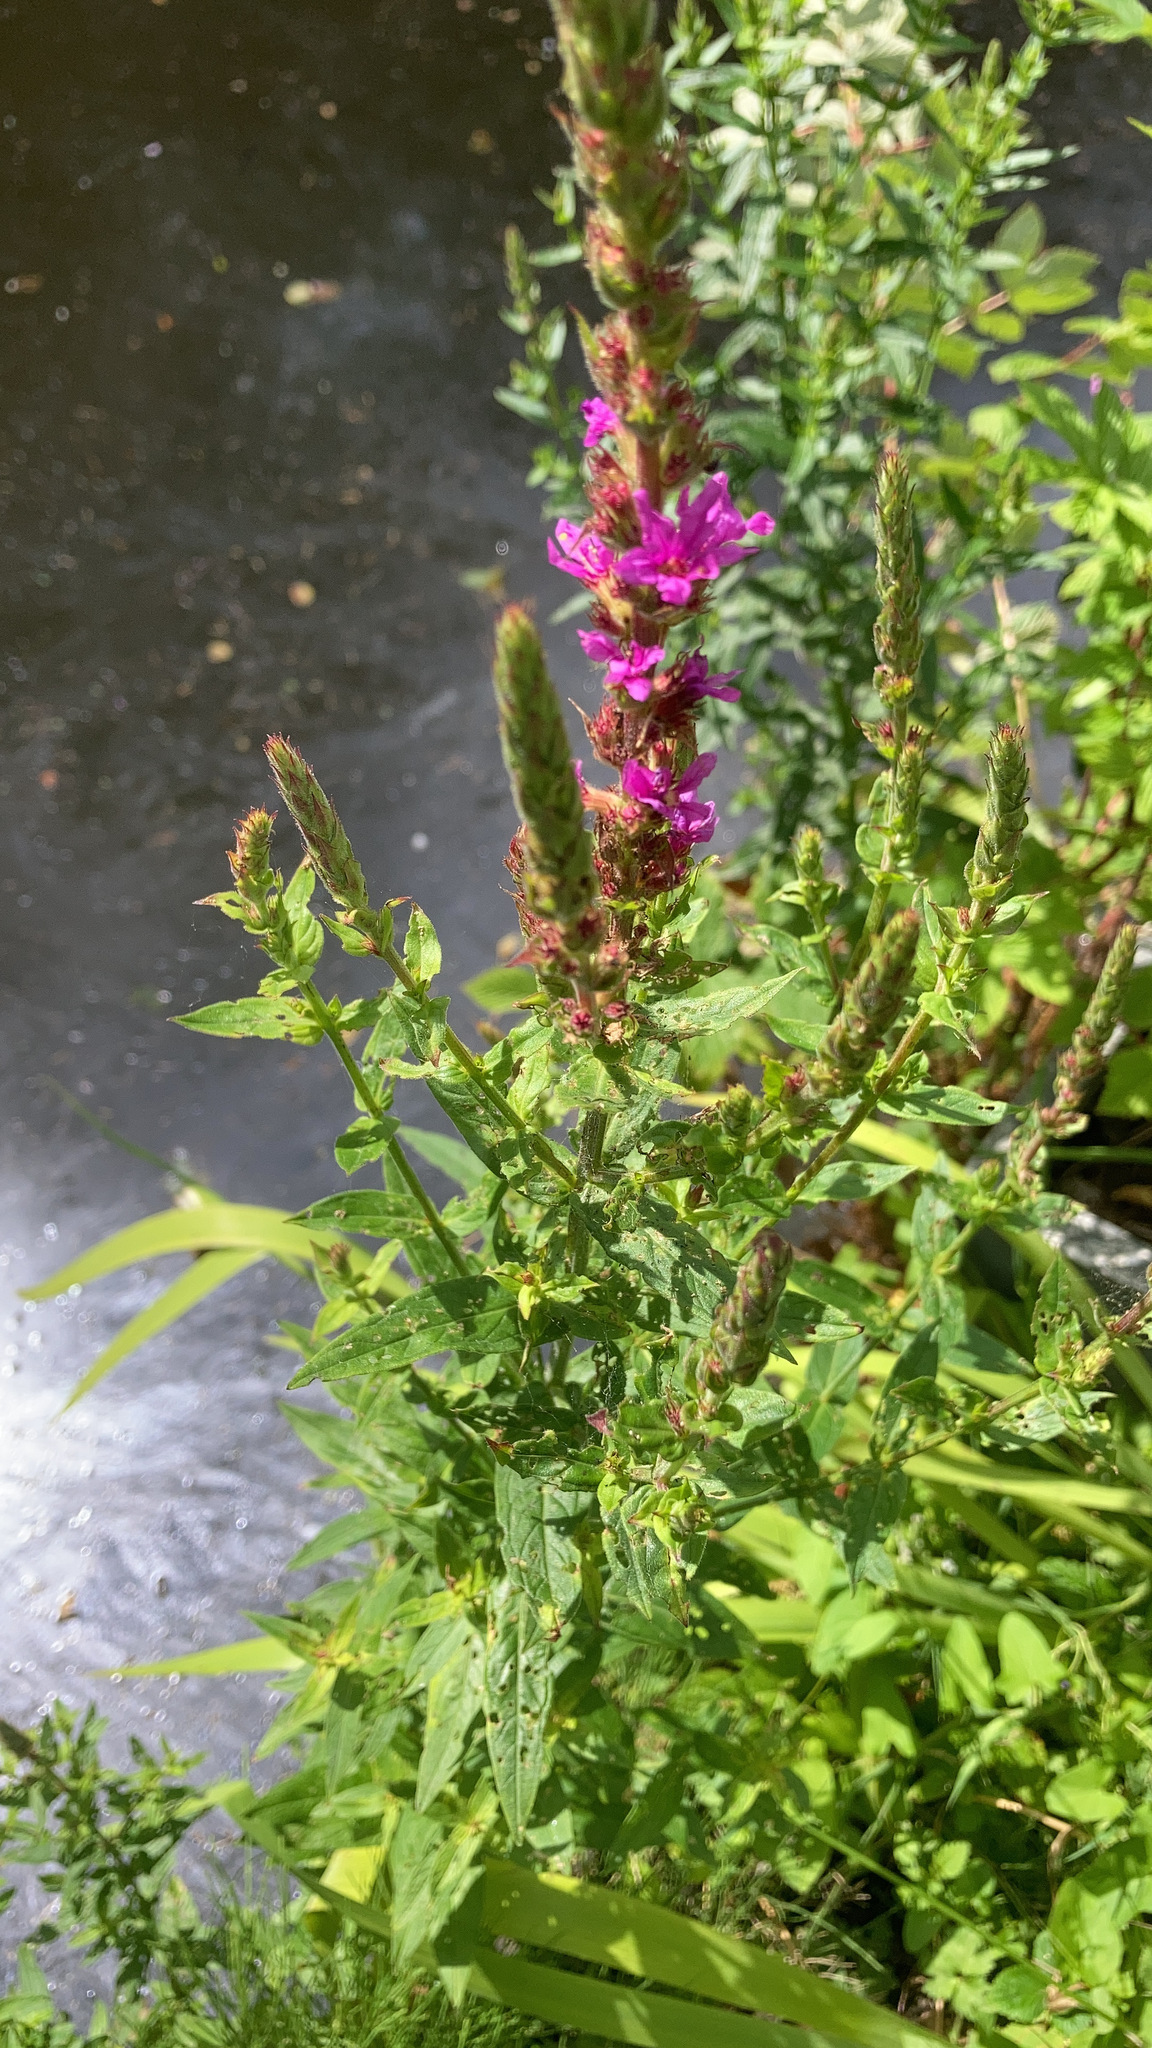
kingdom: Plantae
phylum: Tracheophyta
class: Magnoliopsida
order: Myrtales
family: Lythraceae
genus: Lythrum
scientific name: Lythrum salicaria
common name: Purple loosestrife
